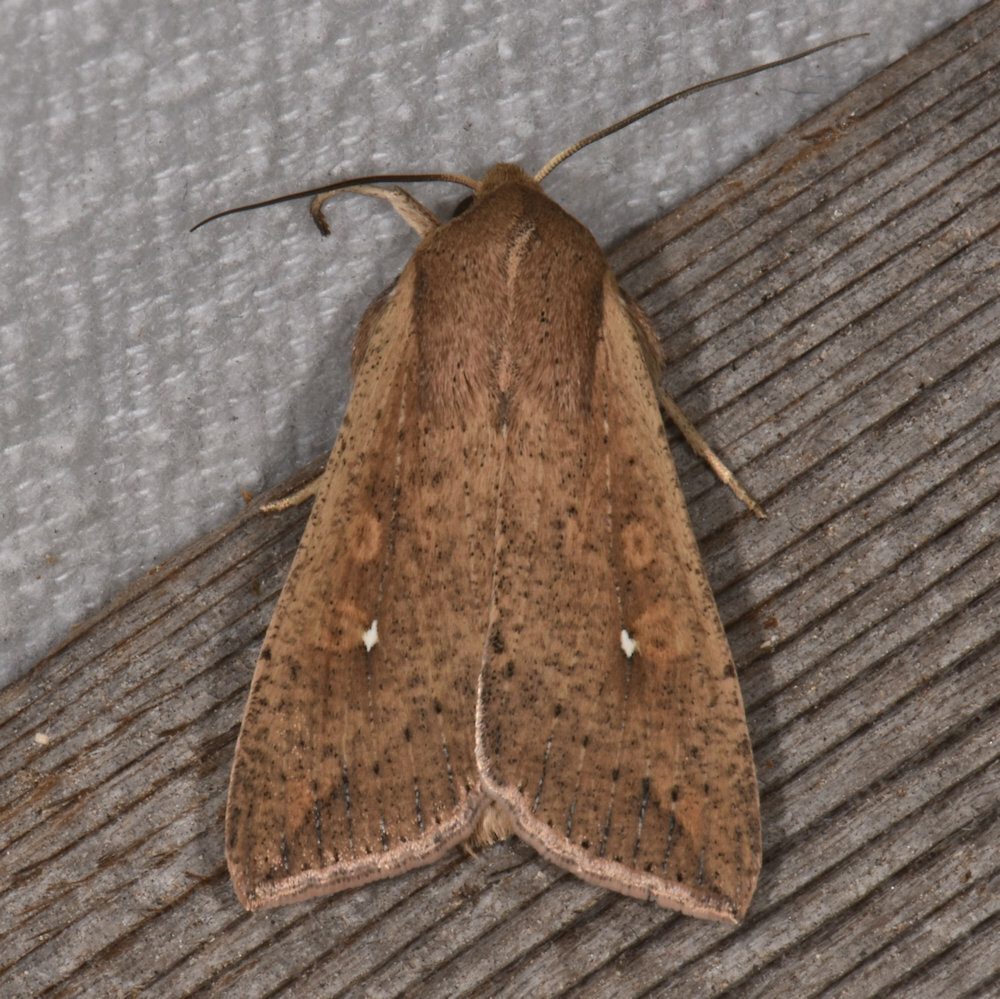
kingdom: Animalia
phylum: Arthropoda
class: Insecta
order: Lepidoptera
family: Noctuidae
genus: Mythimna
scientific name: Mythimna unipuncta
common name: White-speck
